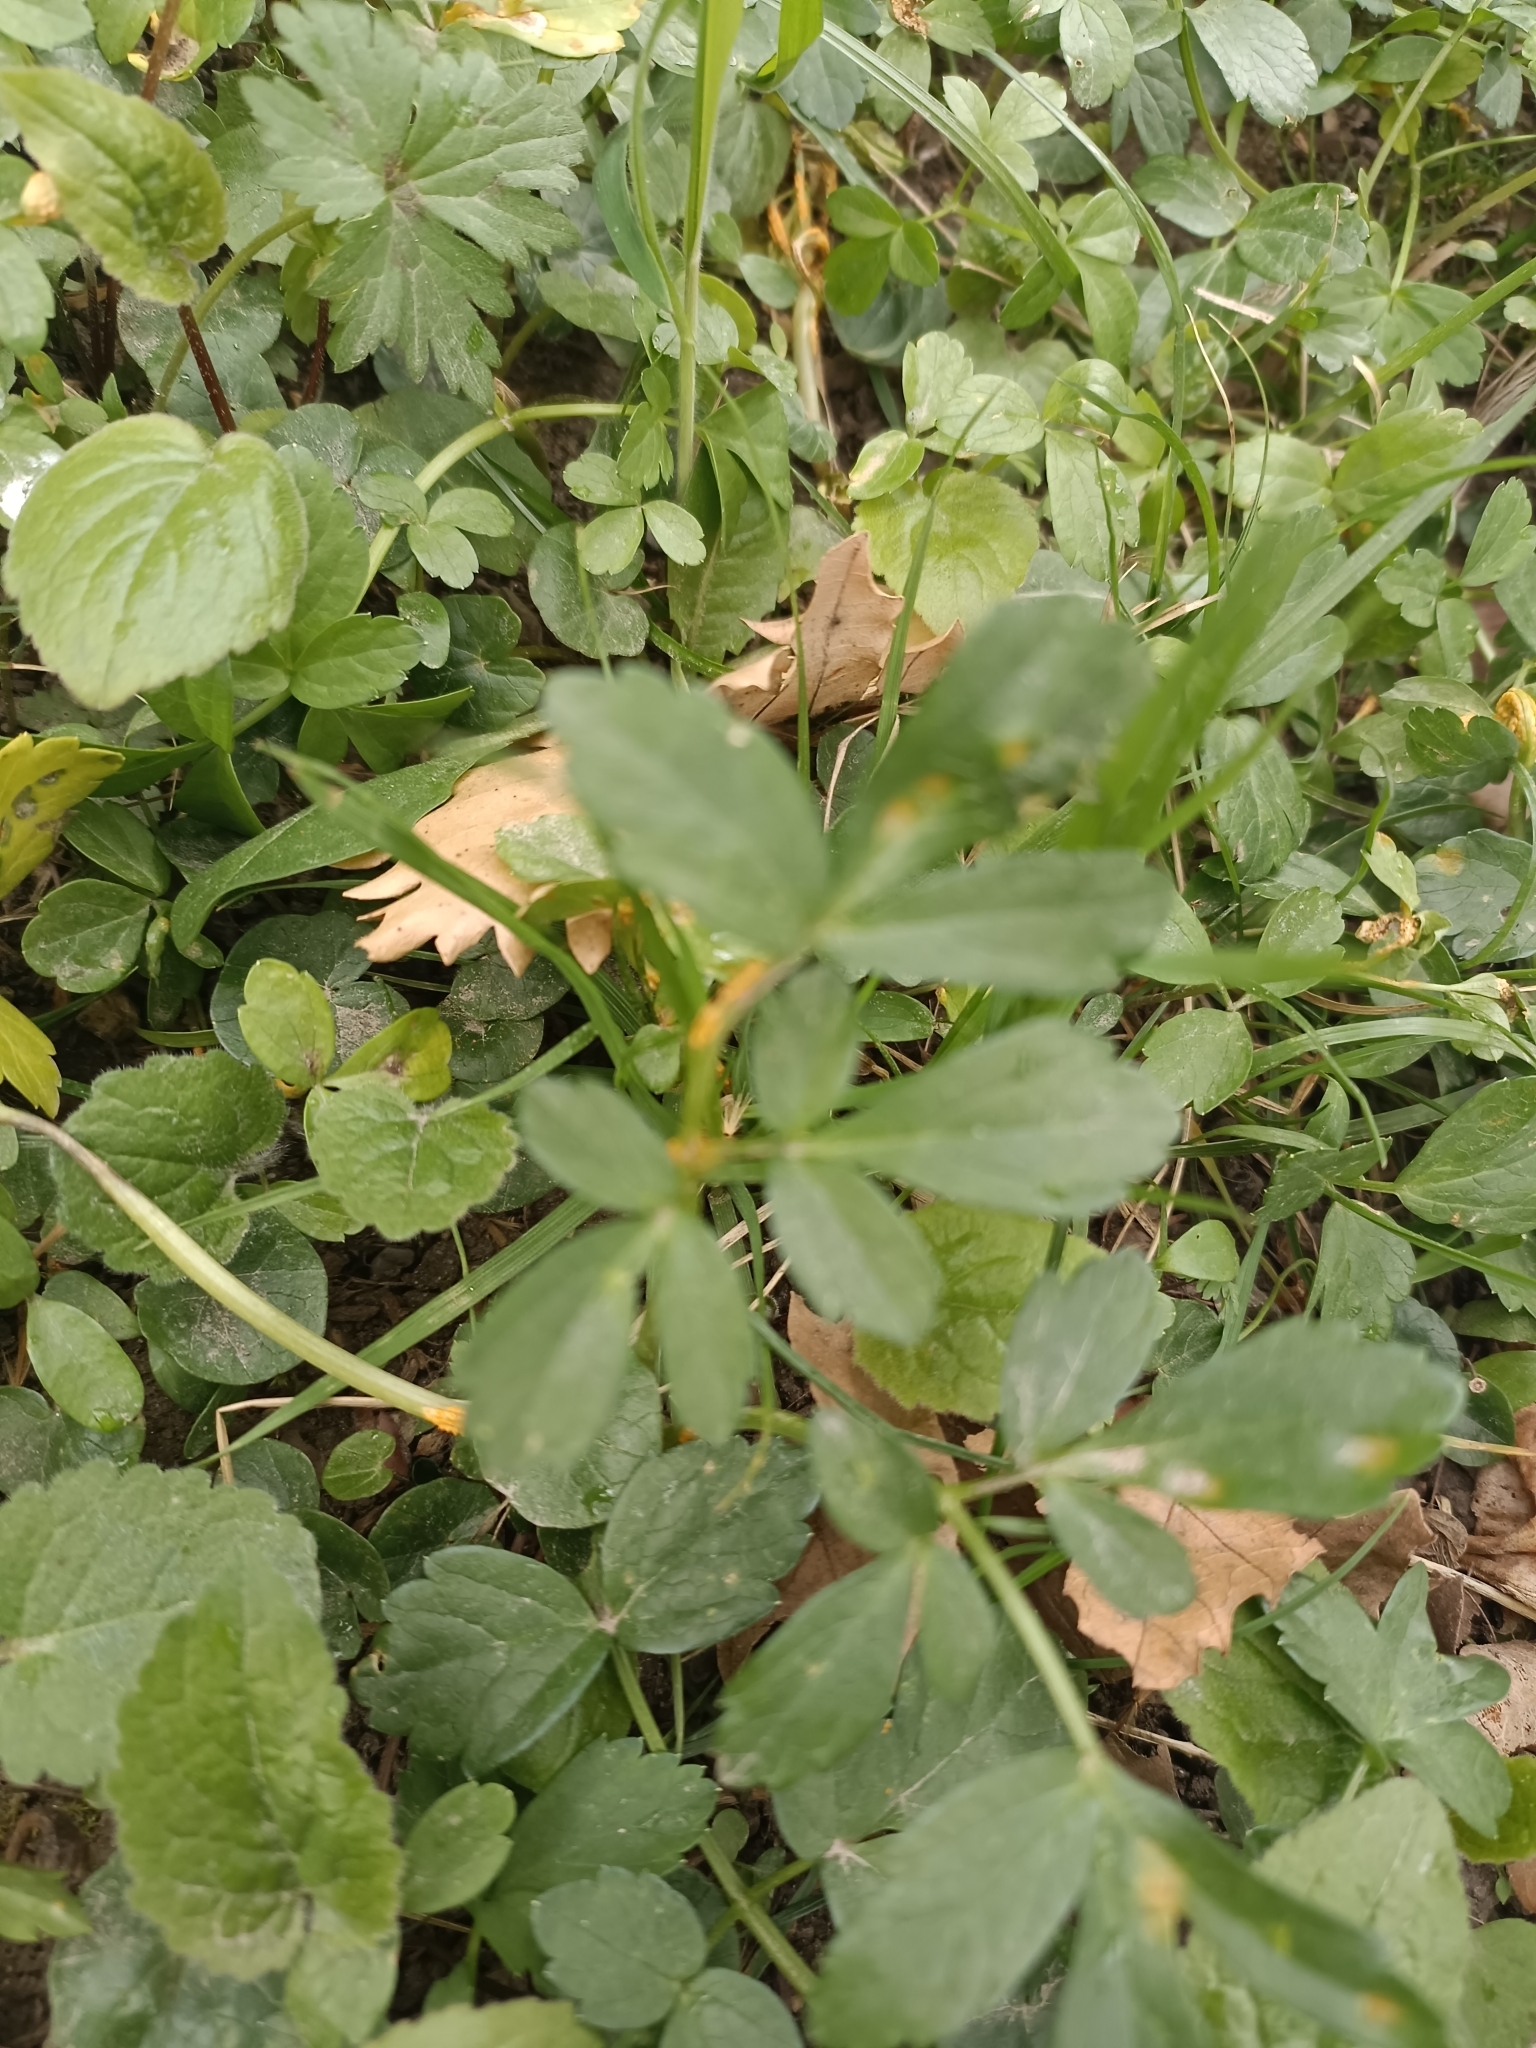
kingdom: Fungi
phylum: Basidiomycota
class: Pucciniomycetes
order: Pucciniales
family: Pucciniaceae
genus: Puccinia
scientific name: Puccinia smyrnii
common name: Alexanders rust
